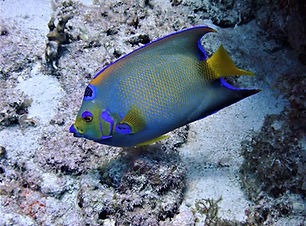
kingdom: Animalia
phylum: Chordata
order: Perciformes
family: Pomacanthidae
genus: Holacanthus
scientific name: Holacanthus ciliaris
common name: Queen angelfish
